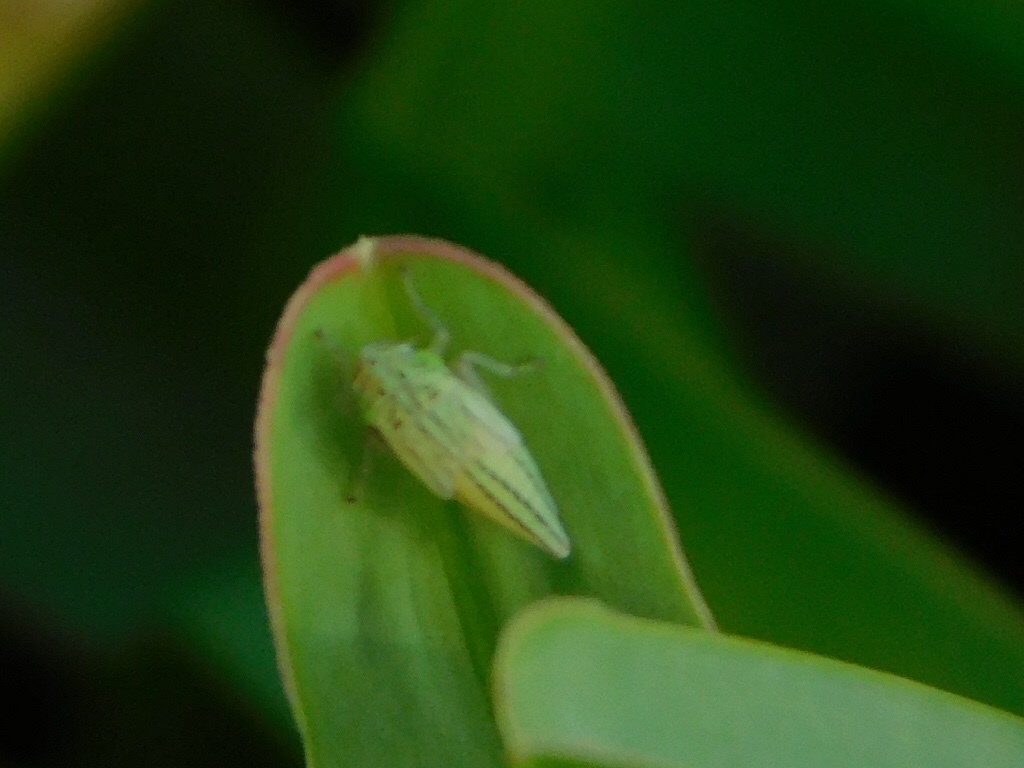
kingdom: Animalia
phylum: Arthropoda
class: Insecta
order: Hemiptera
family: Cicadellidae
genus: Hortensia
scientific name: Hortensia similis
